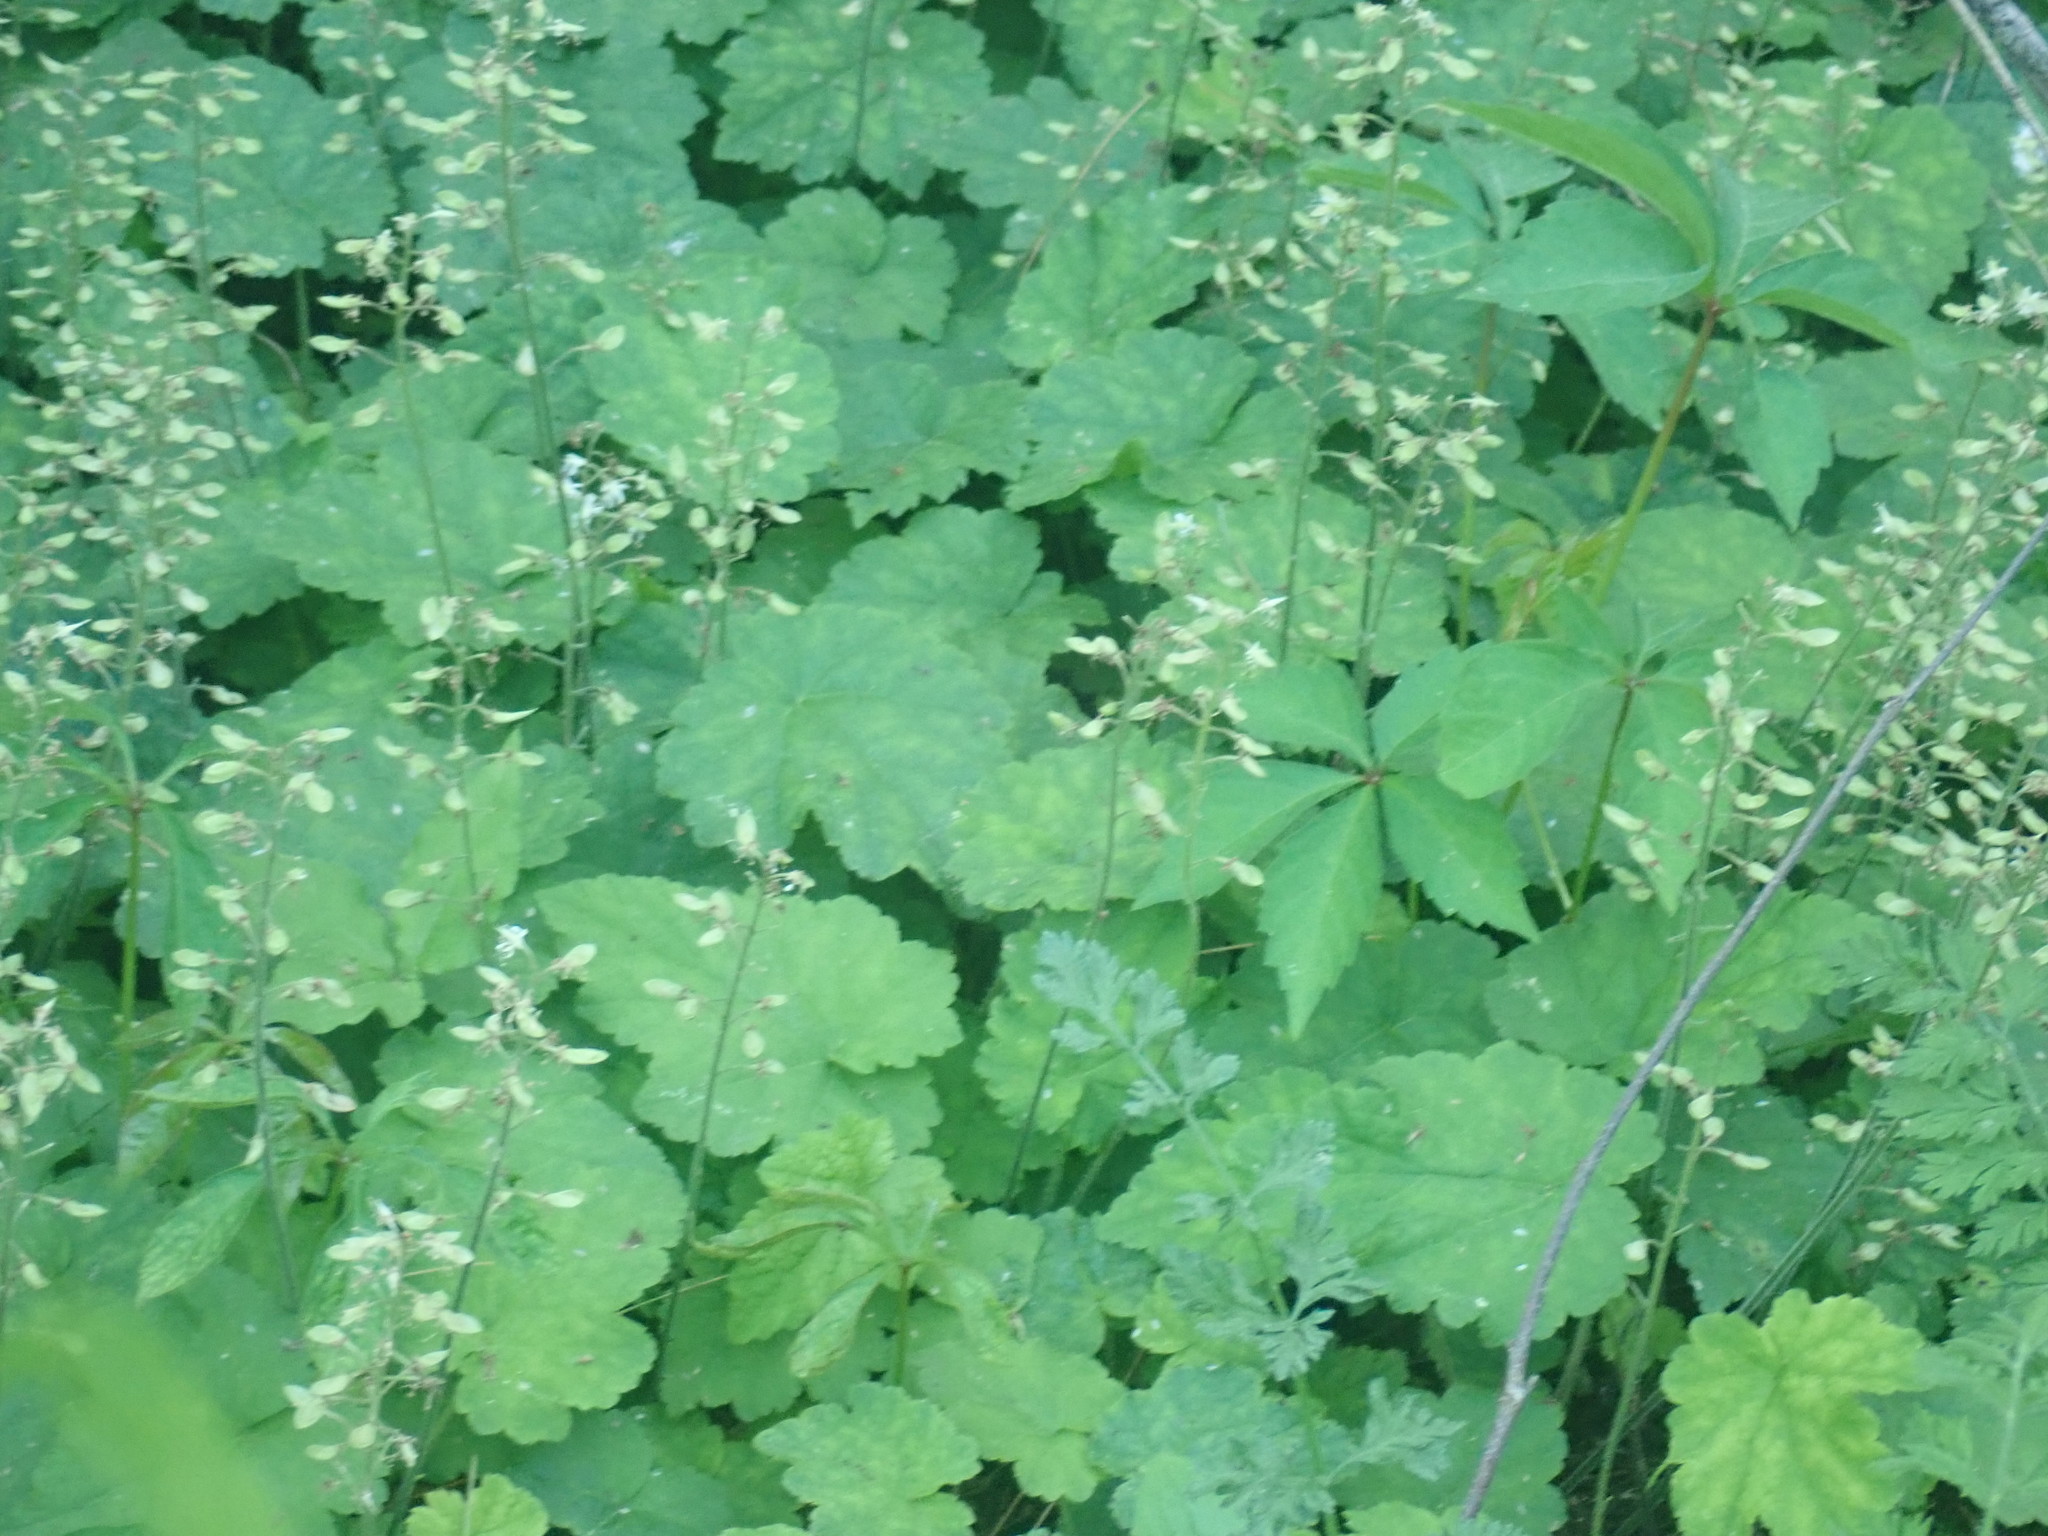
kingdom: Plantae
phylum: Tracheophyta
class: Magnoliopsida
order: Saxifragales
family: Saxifragaceae
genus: Tiarella
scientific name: Tiarella stolonifera
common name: Stoloniferous foamflower
